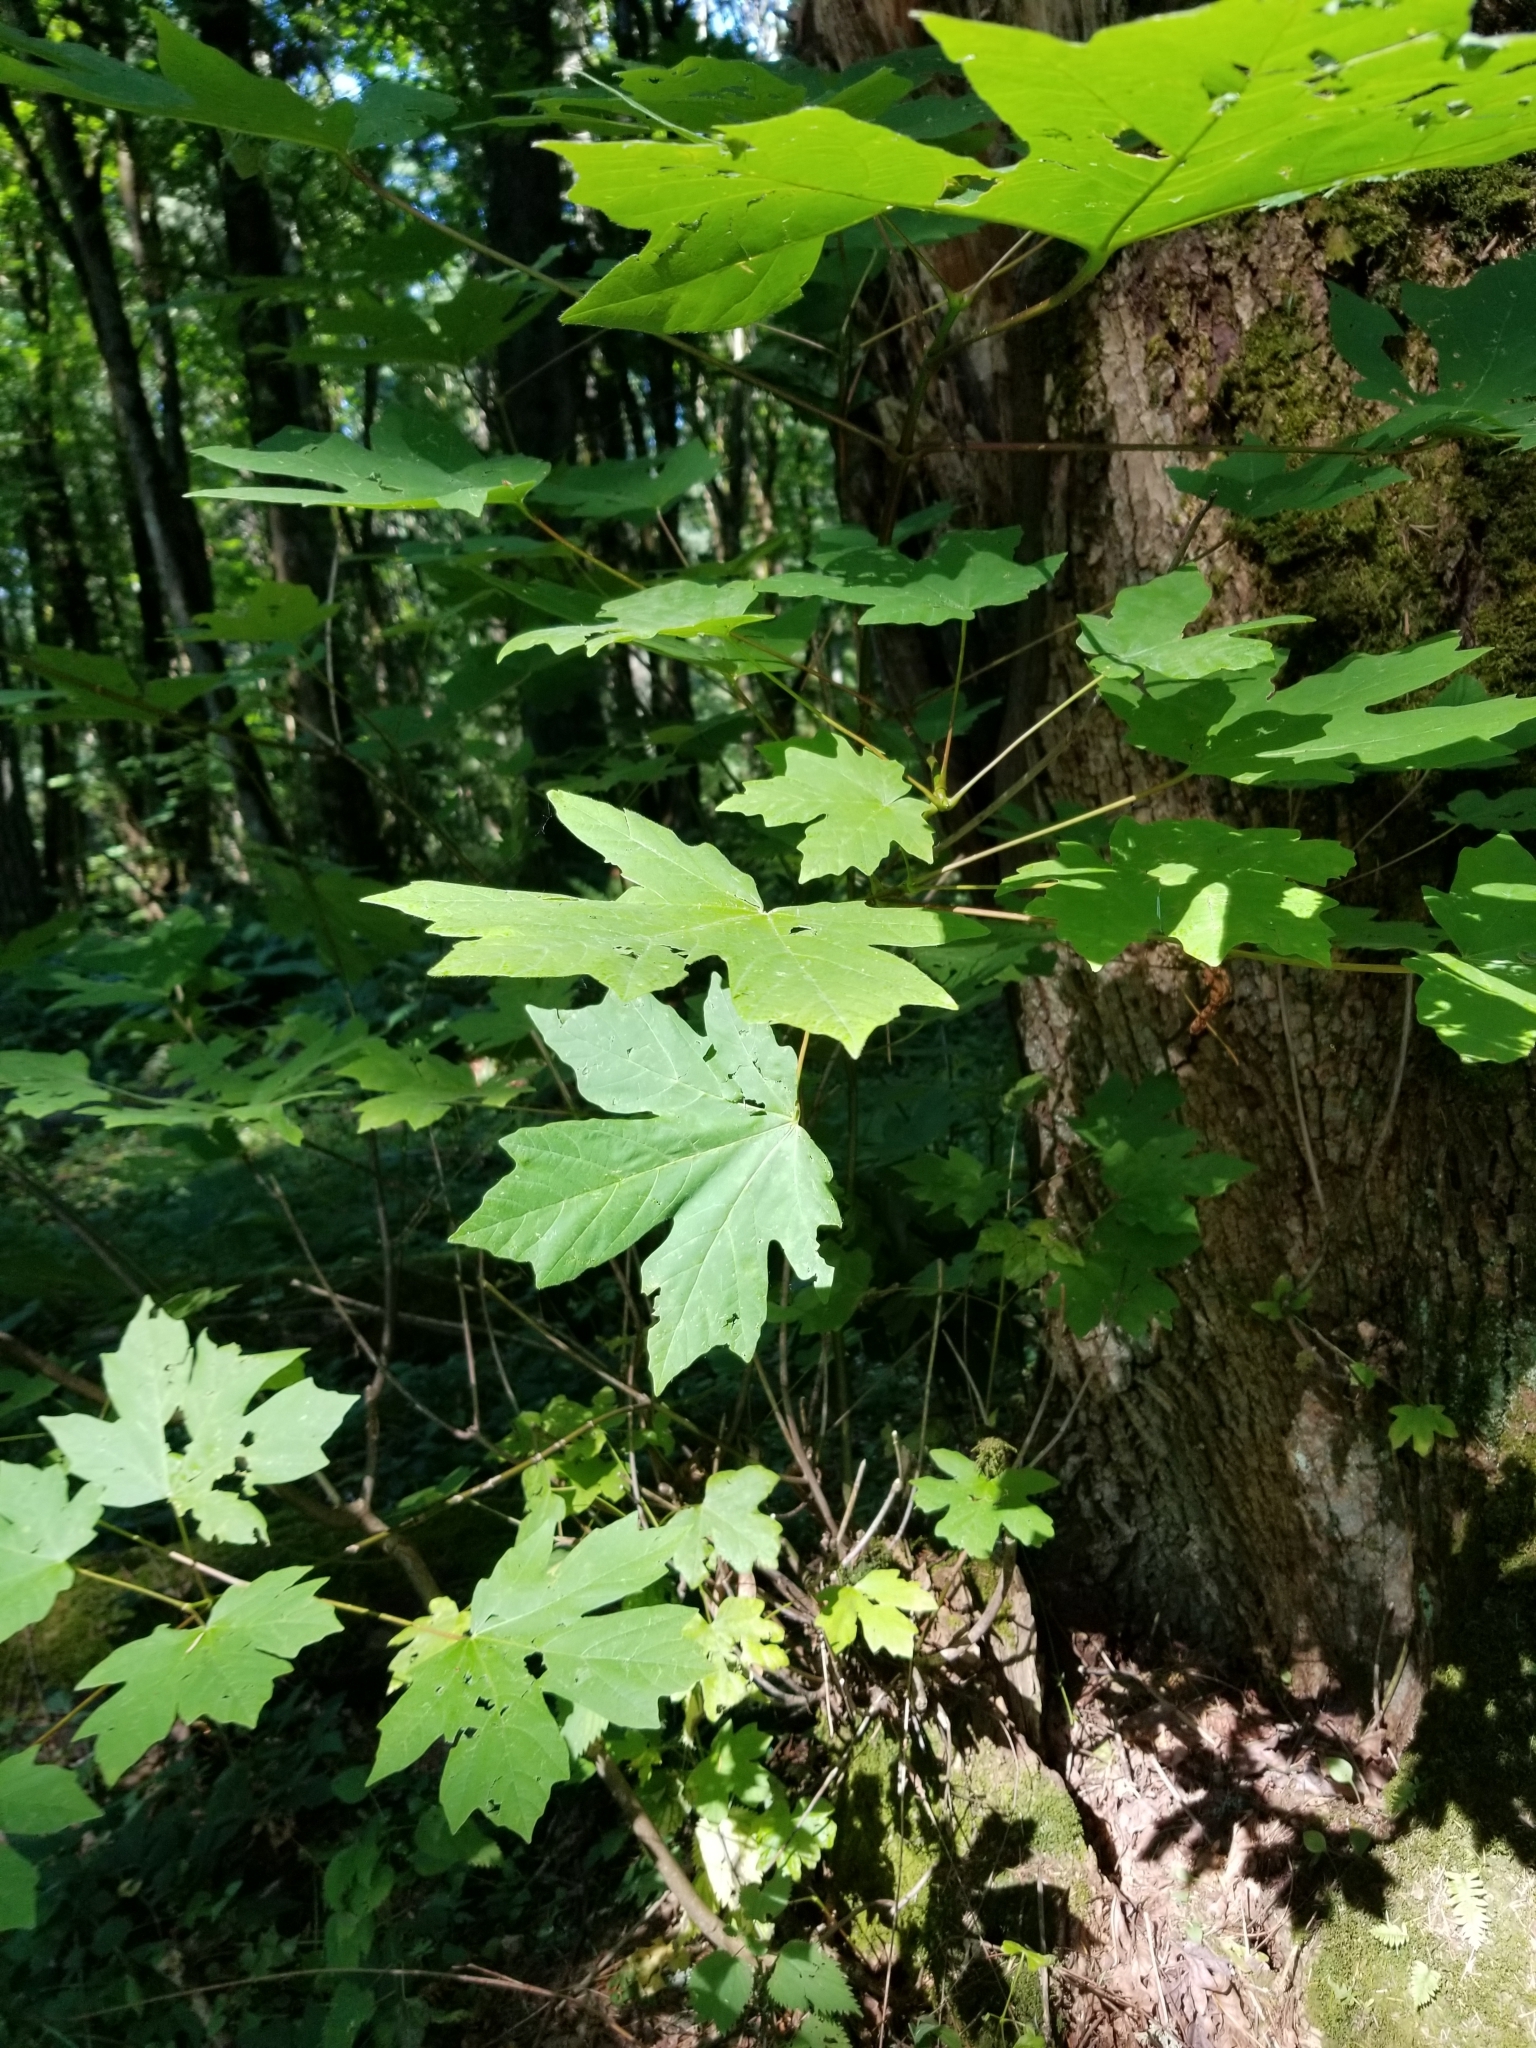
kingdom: Plantae
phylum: Tracheophyta
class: Magnoliopsida
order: Sapindales
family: Sapindaceae
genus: Acer
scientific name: Acer macrophyllum
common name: Oregon maple
